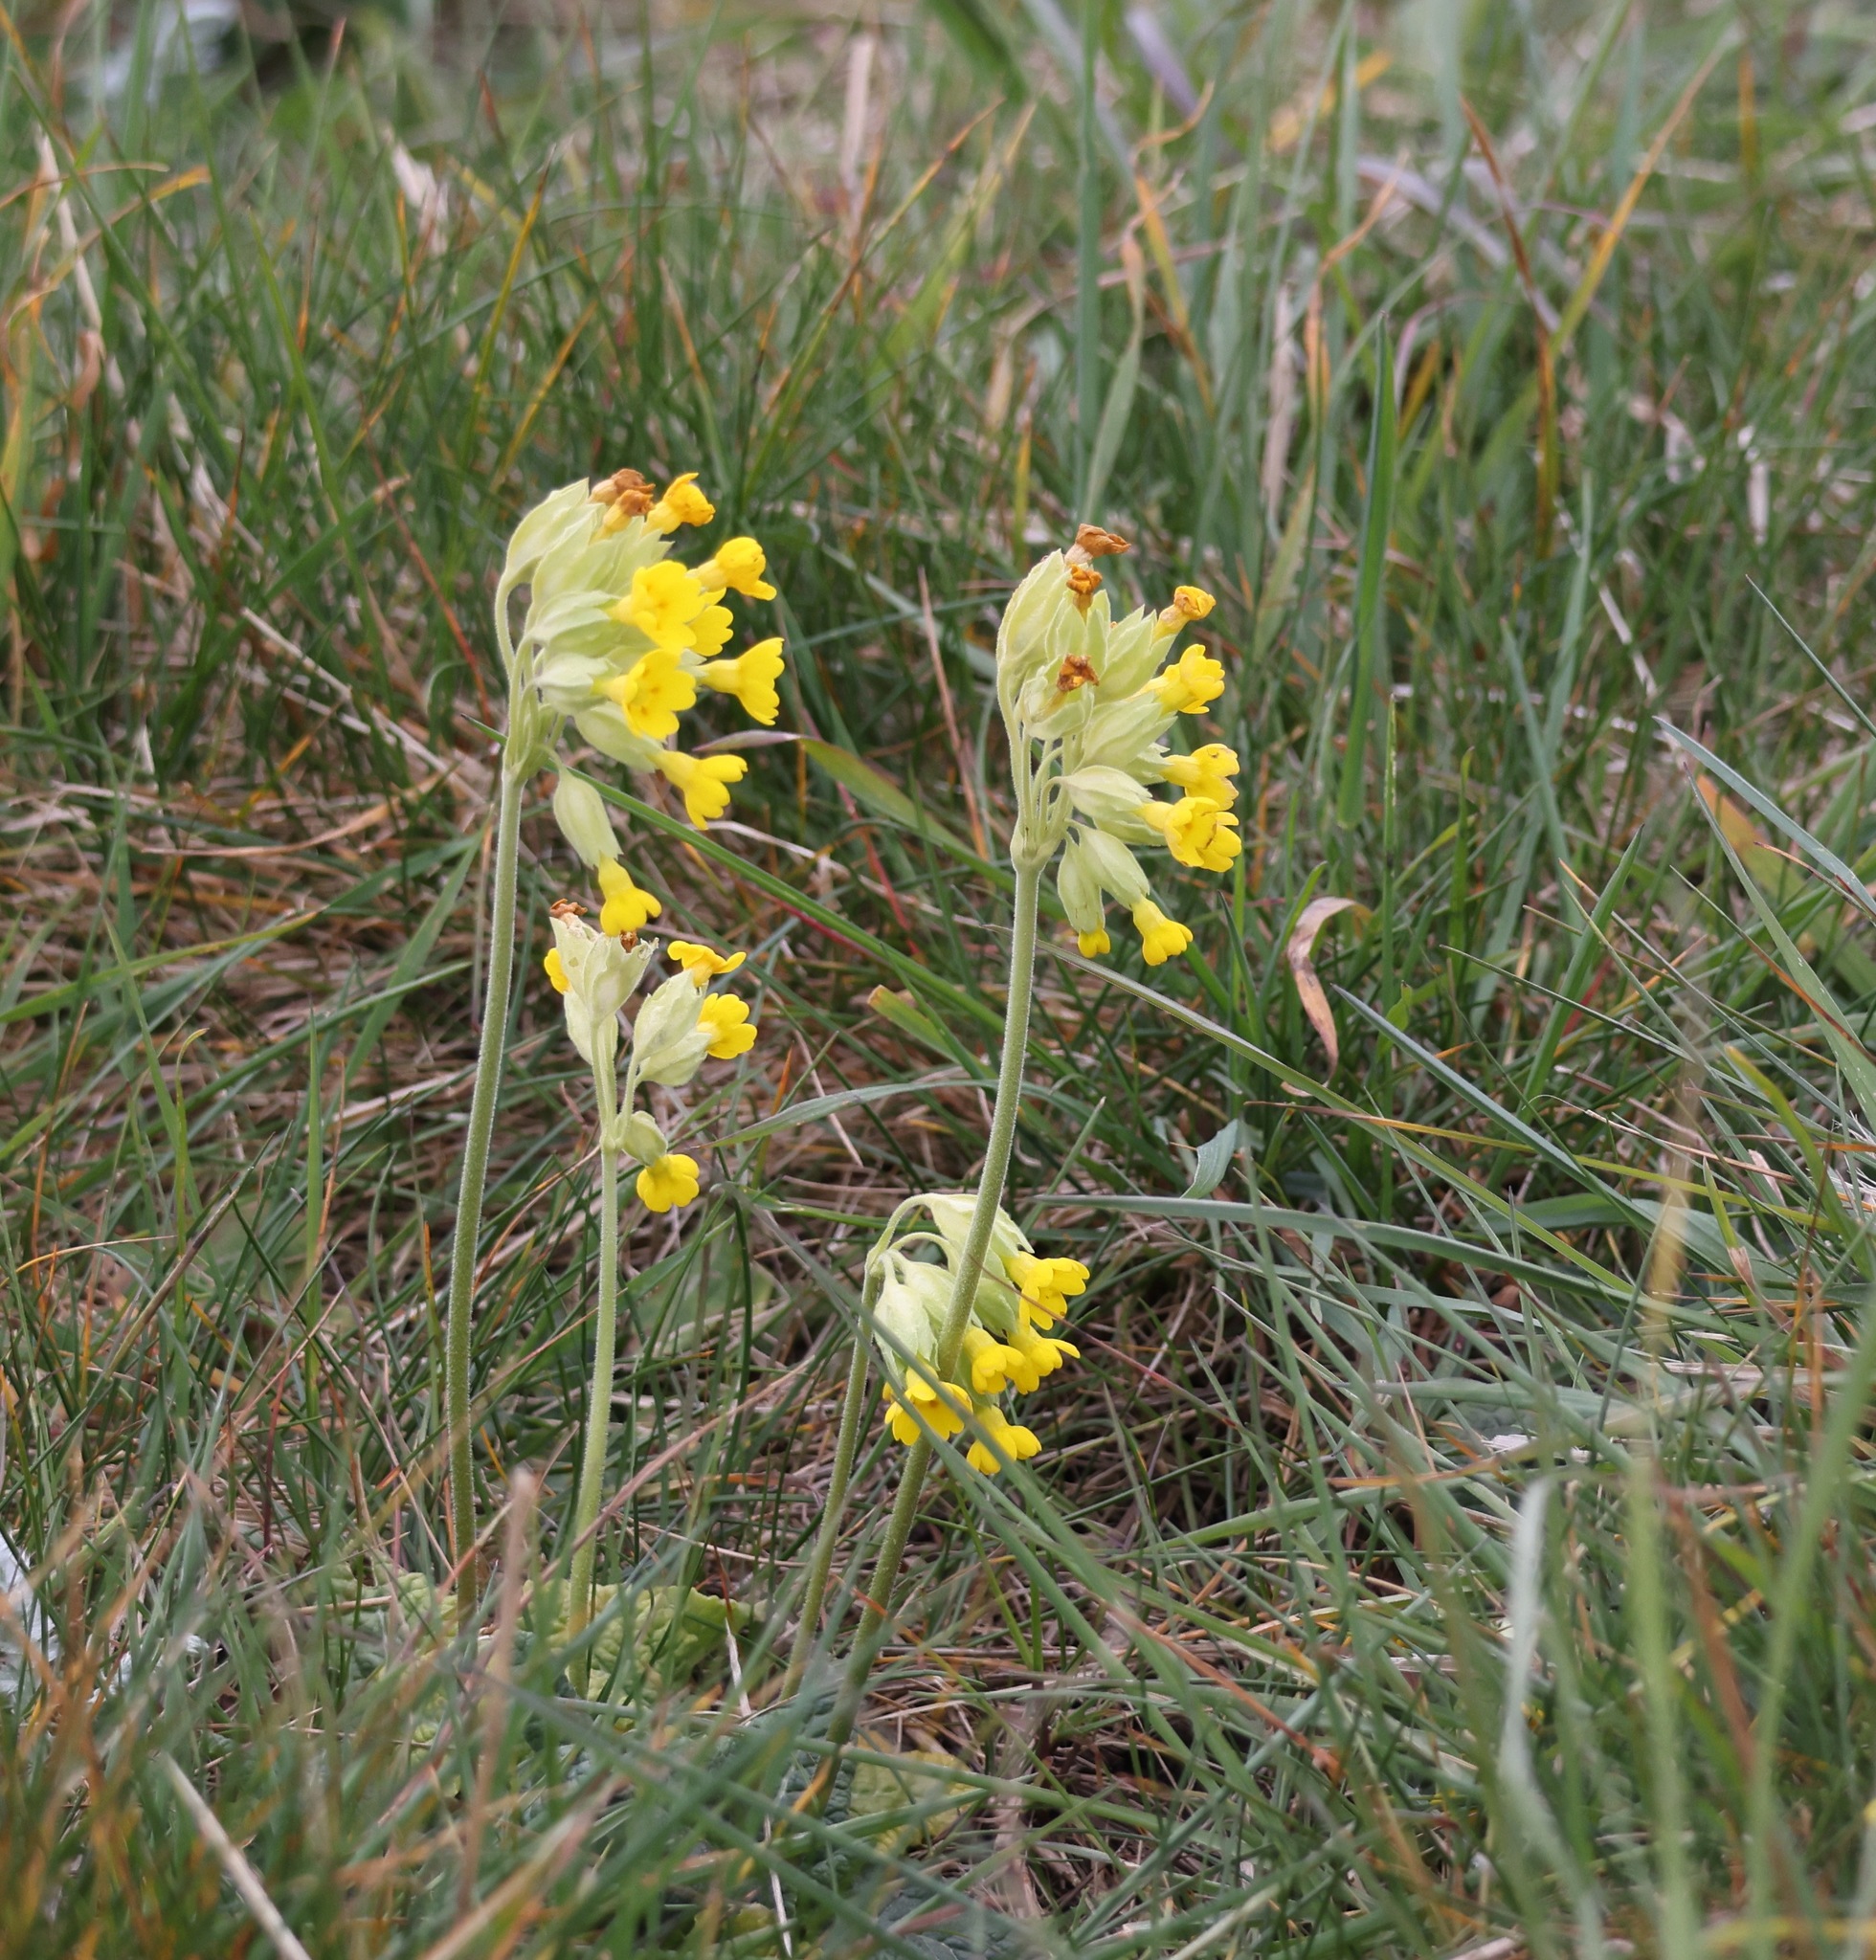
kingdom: Plantae
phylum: Tracheophyta
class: Magnoliopsida
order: Ericales
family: Primulaceae
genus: Primula
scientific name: Primula veris
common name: Cowslip
